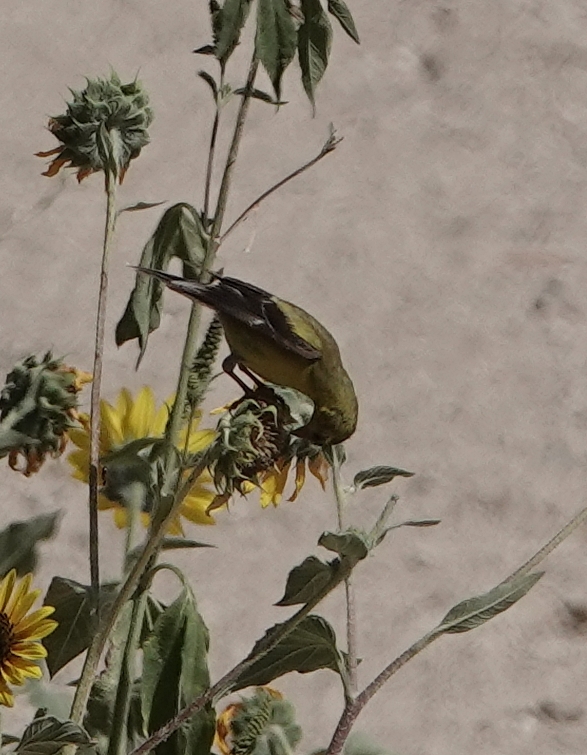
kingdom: Animalia
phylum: Chordata
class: Aves
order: Passeriformes
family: Fringillidae
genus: Spinus
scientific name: Spinus psaltria
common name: Lesser goldfinch
